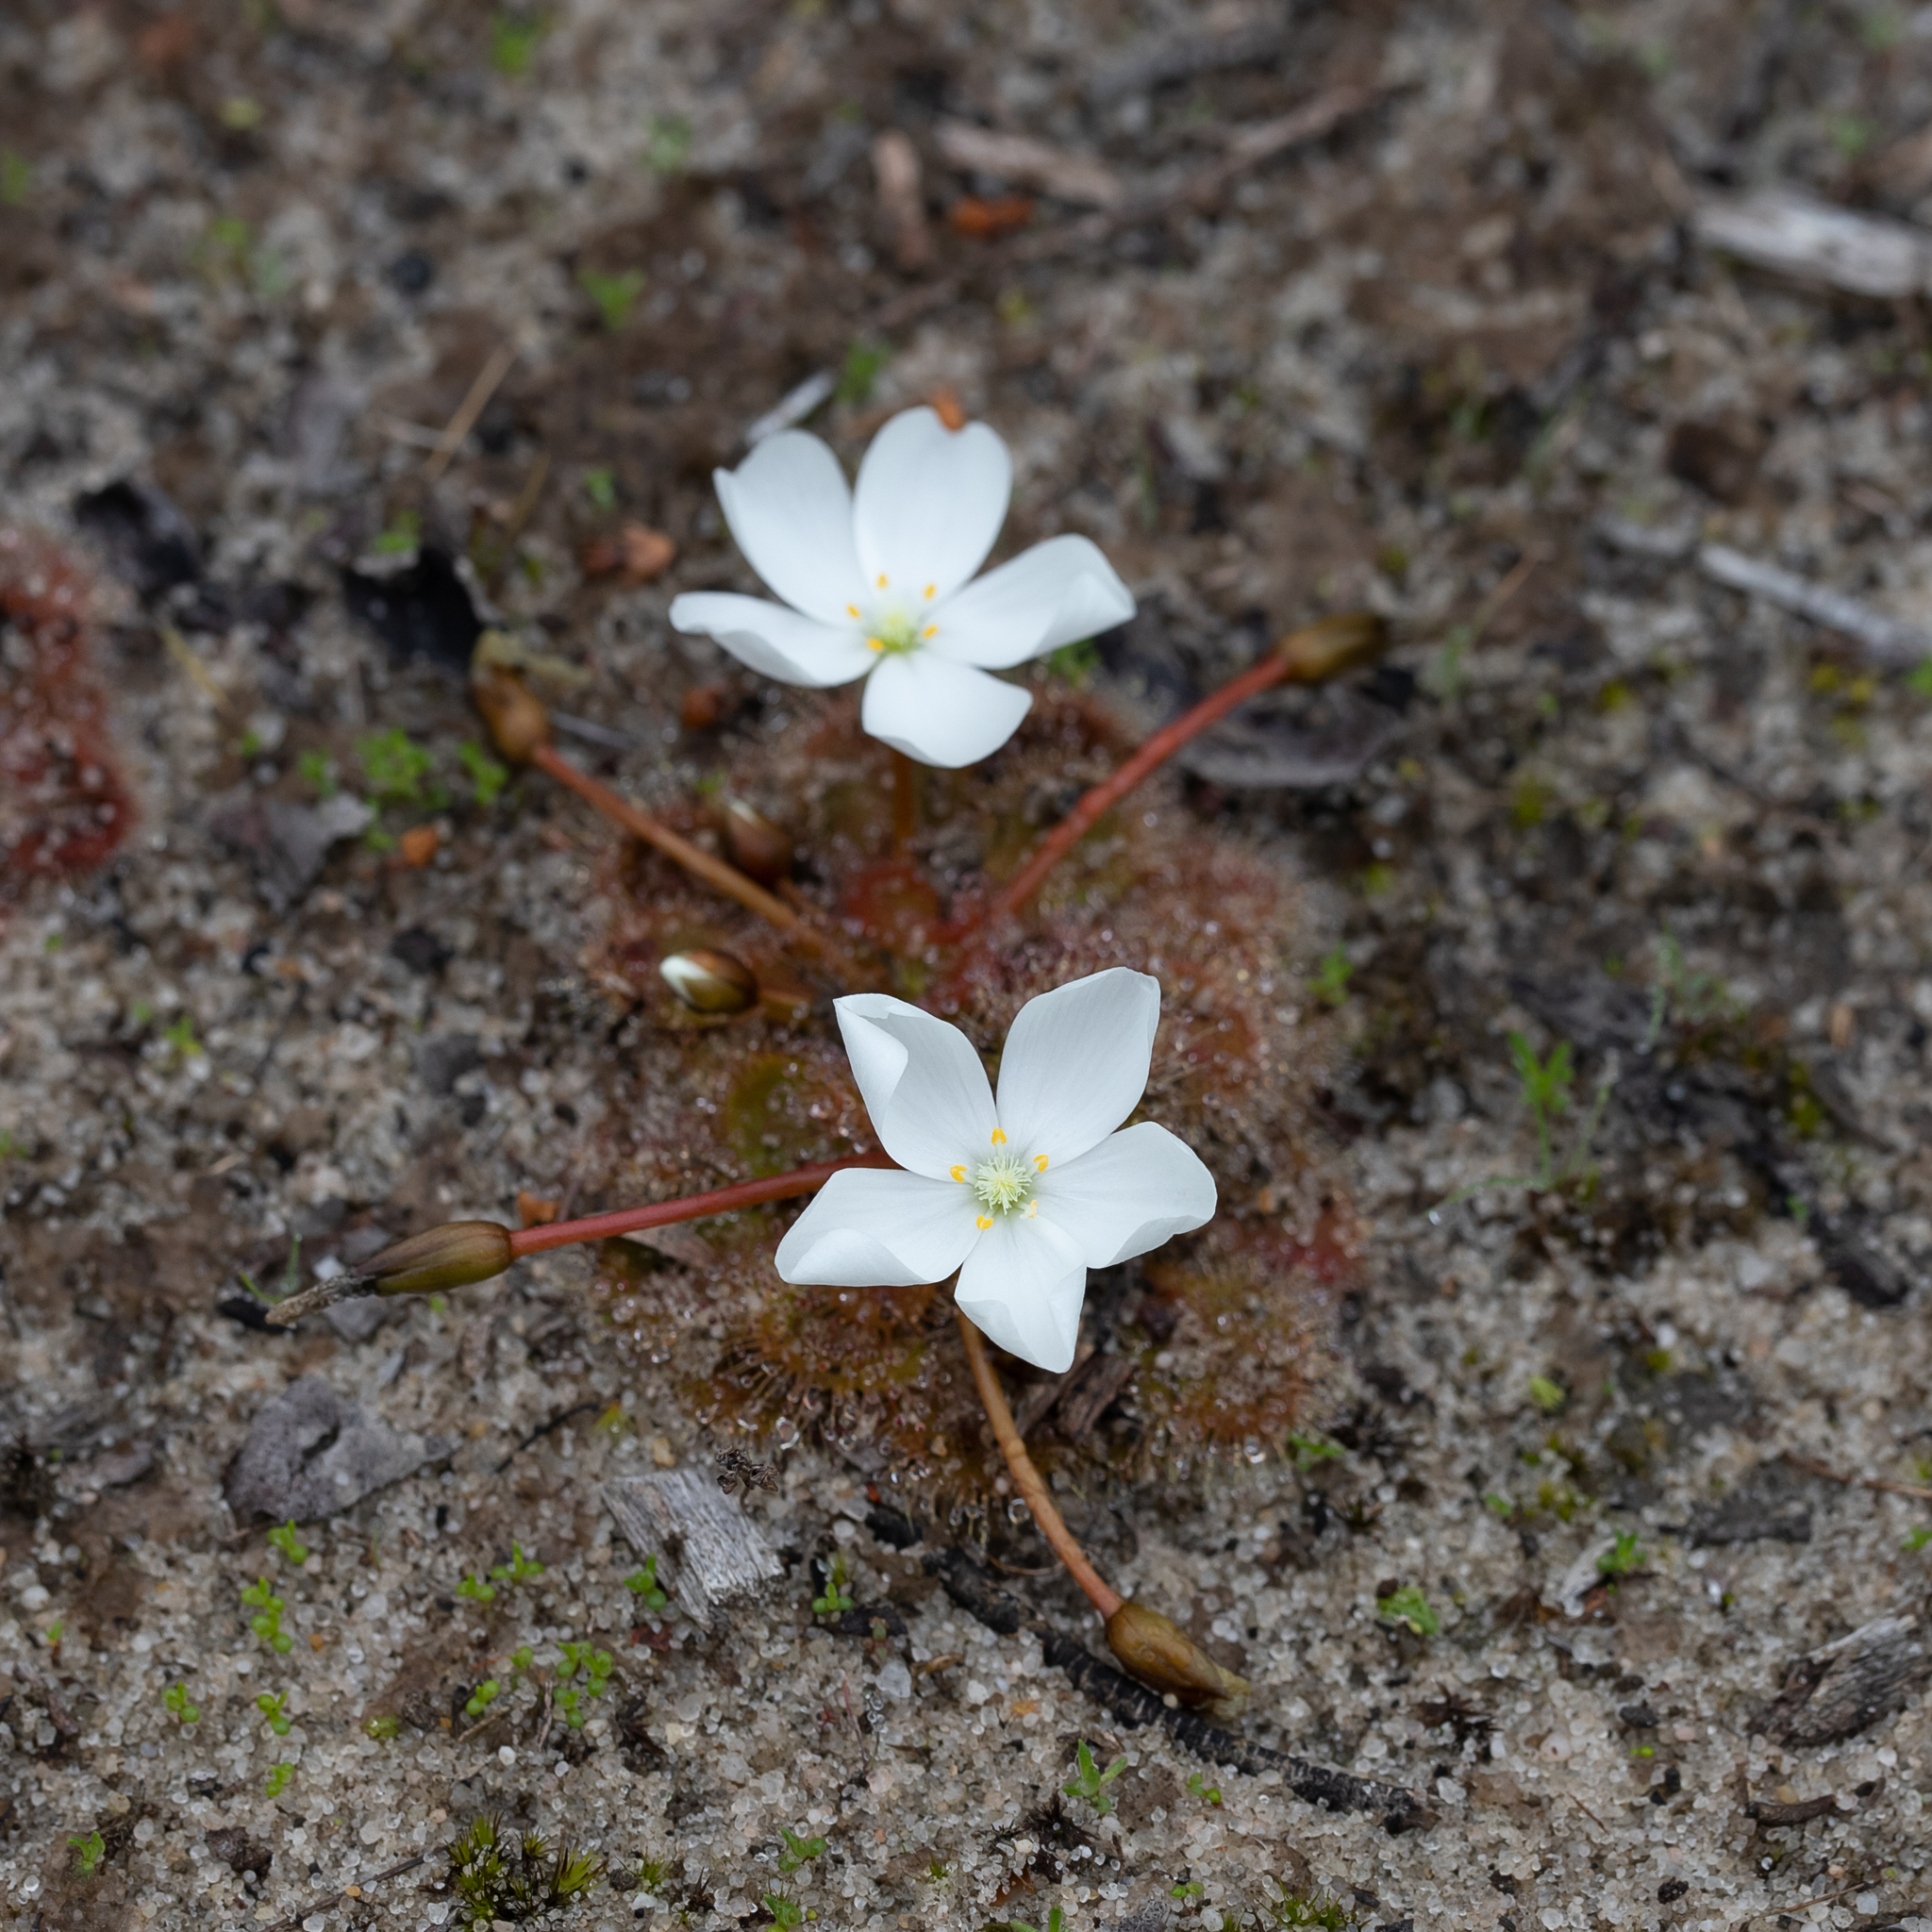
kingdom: Plantae
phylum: Tracheophyta
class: Magnoliopsida
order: Caryophyllales
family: Droseraceae
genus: Drosera
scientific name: Drosera whittakeri
